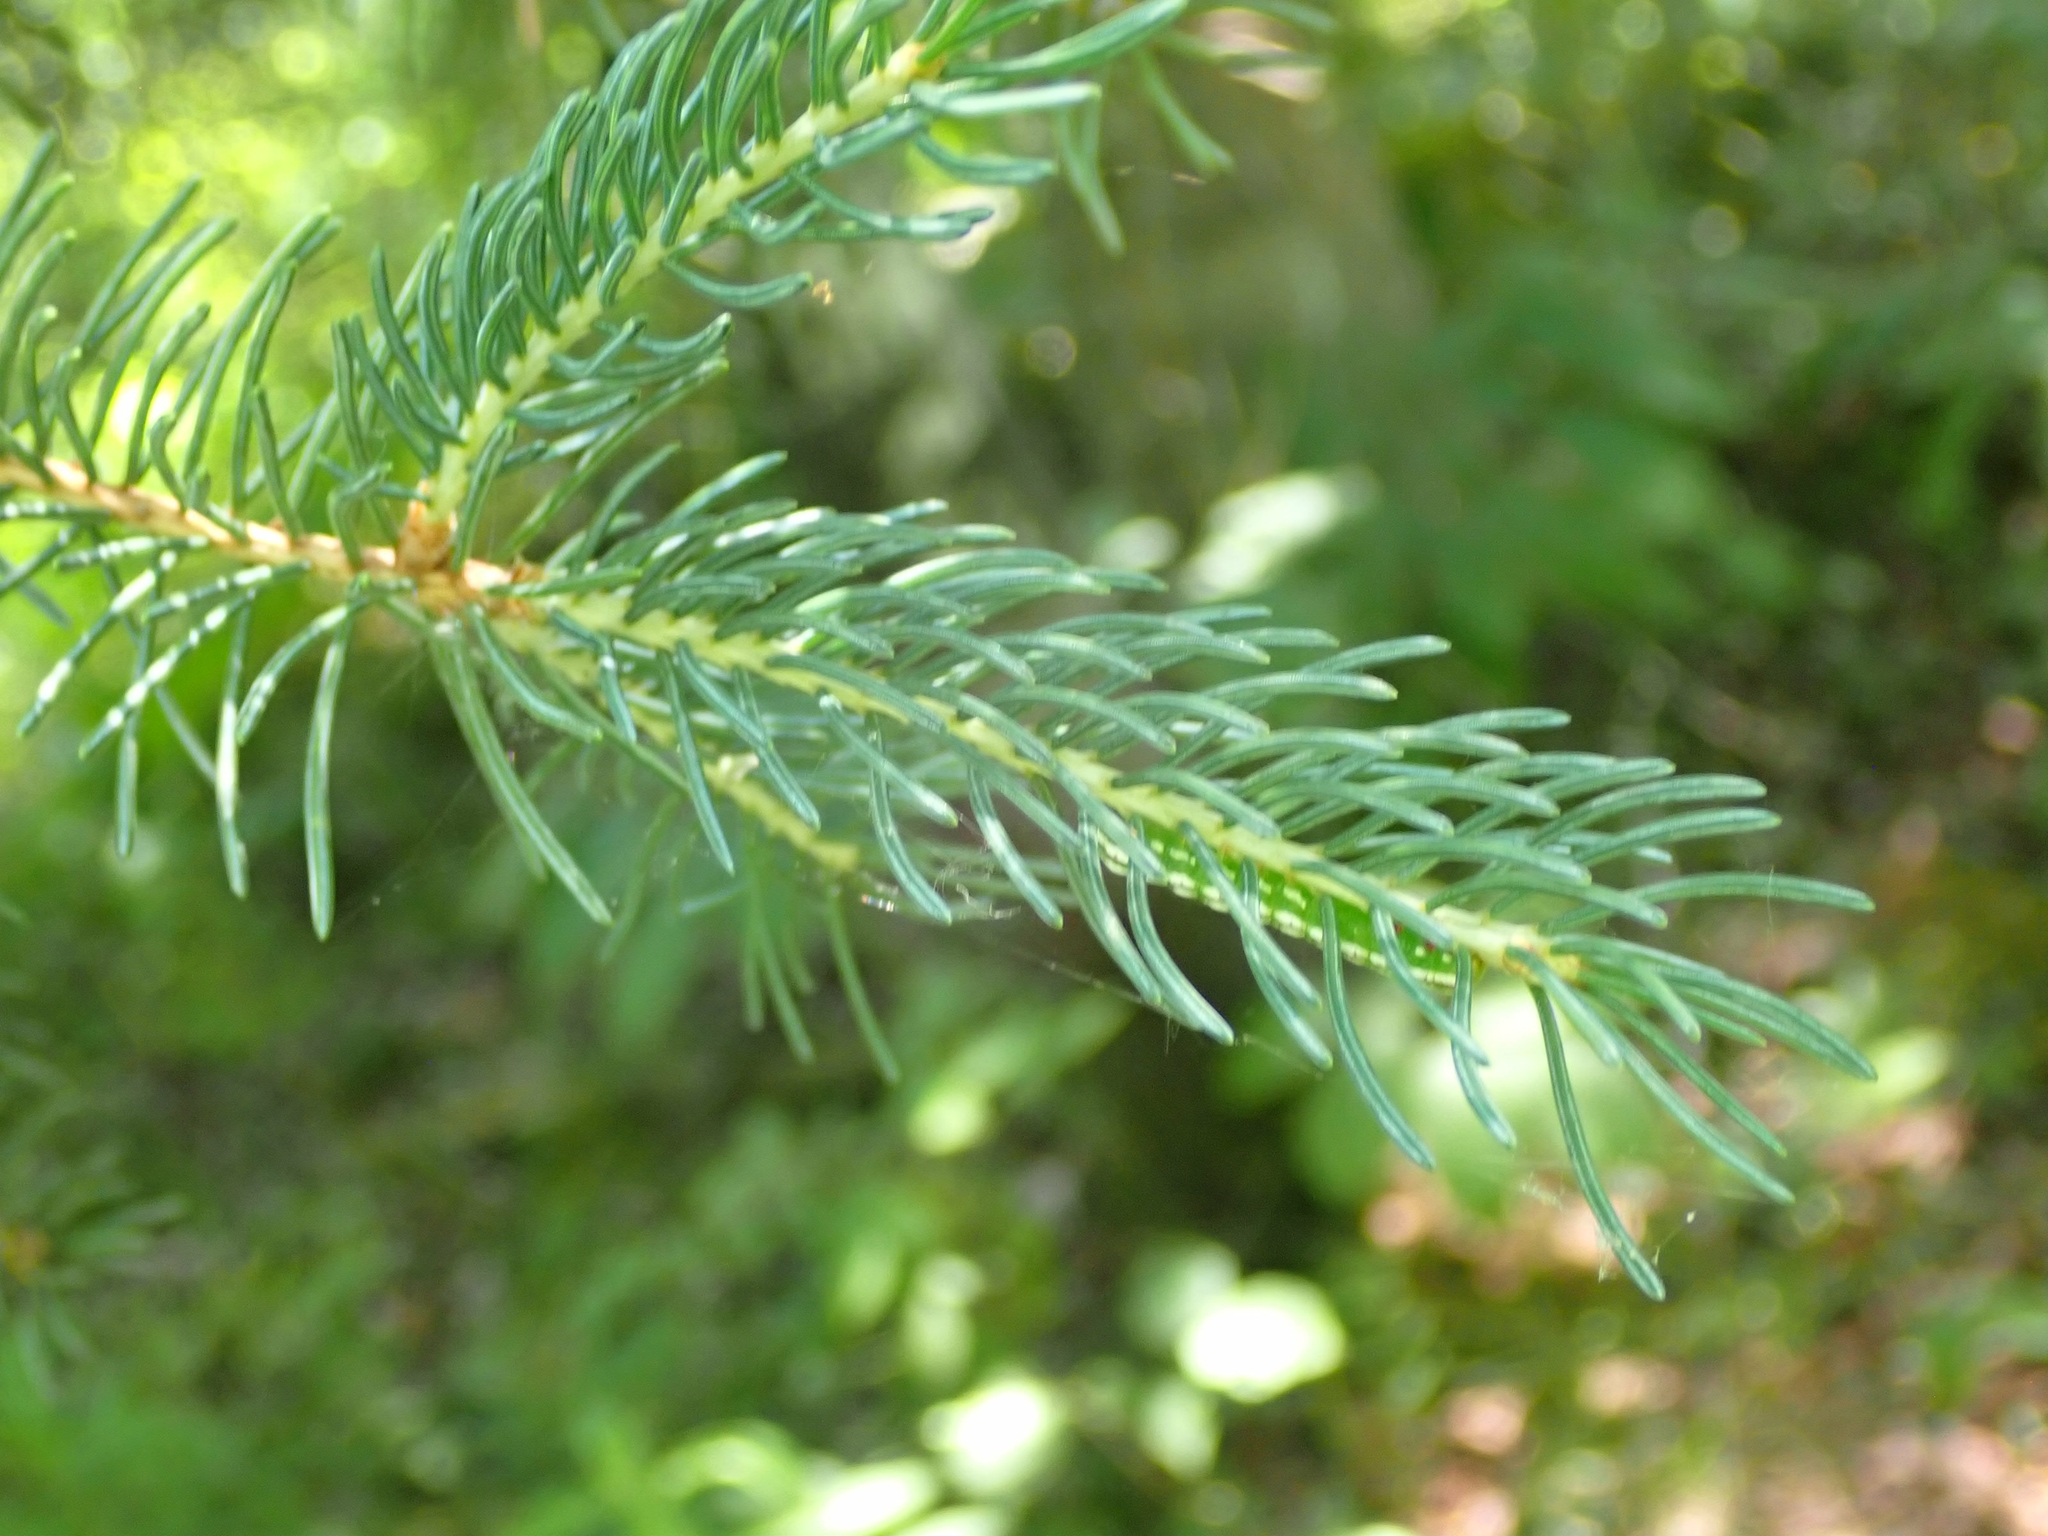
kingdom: Plantae
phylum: Tracheophyta
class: Pinopsida
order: Pinales
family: Pinaceae
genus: Picea
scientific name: Picea glauca
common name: White spruce
